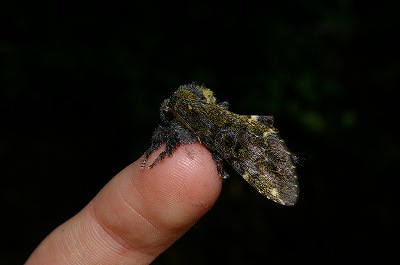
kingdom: Animalia
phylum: Arthropoda
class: Insecta
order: Lepidoptera
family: Notodontidae
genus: Zaranga
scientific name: Zaranga permagna
